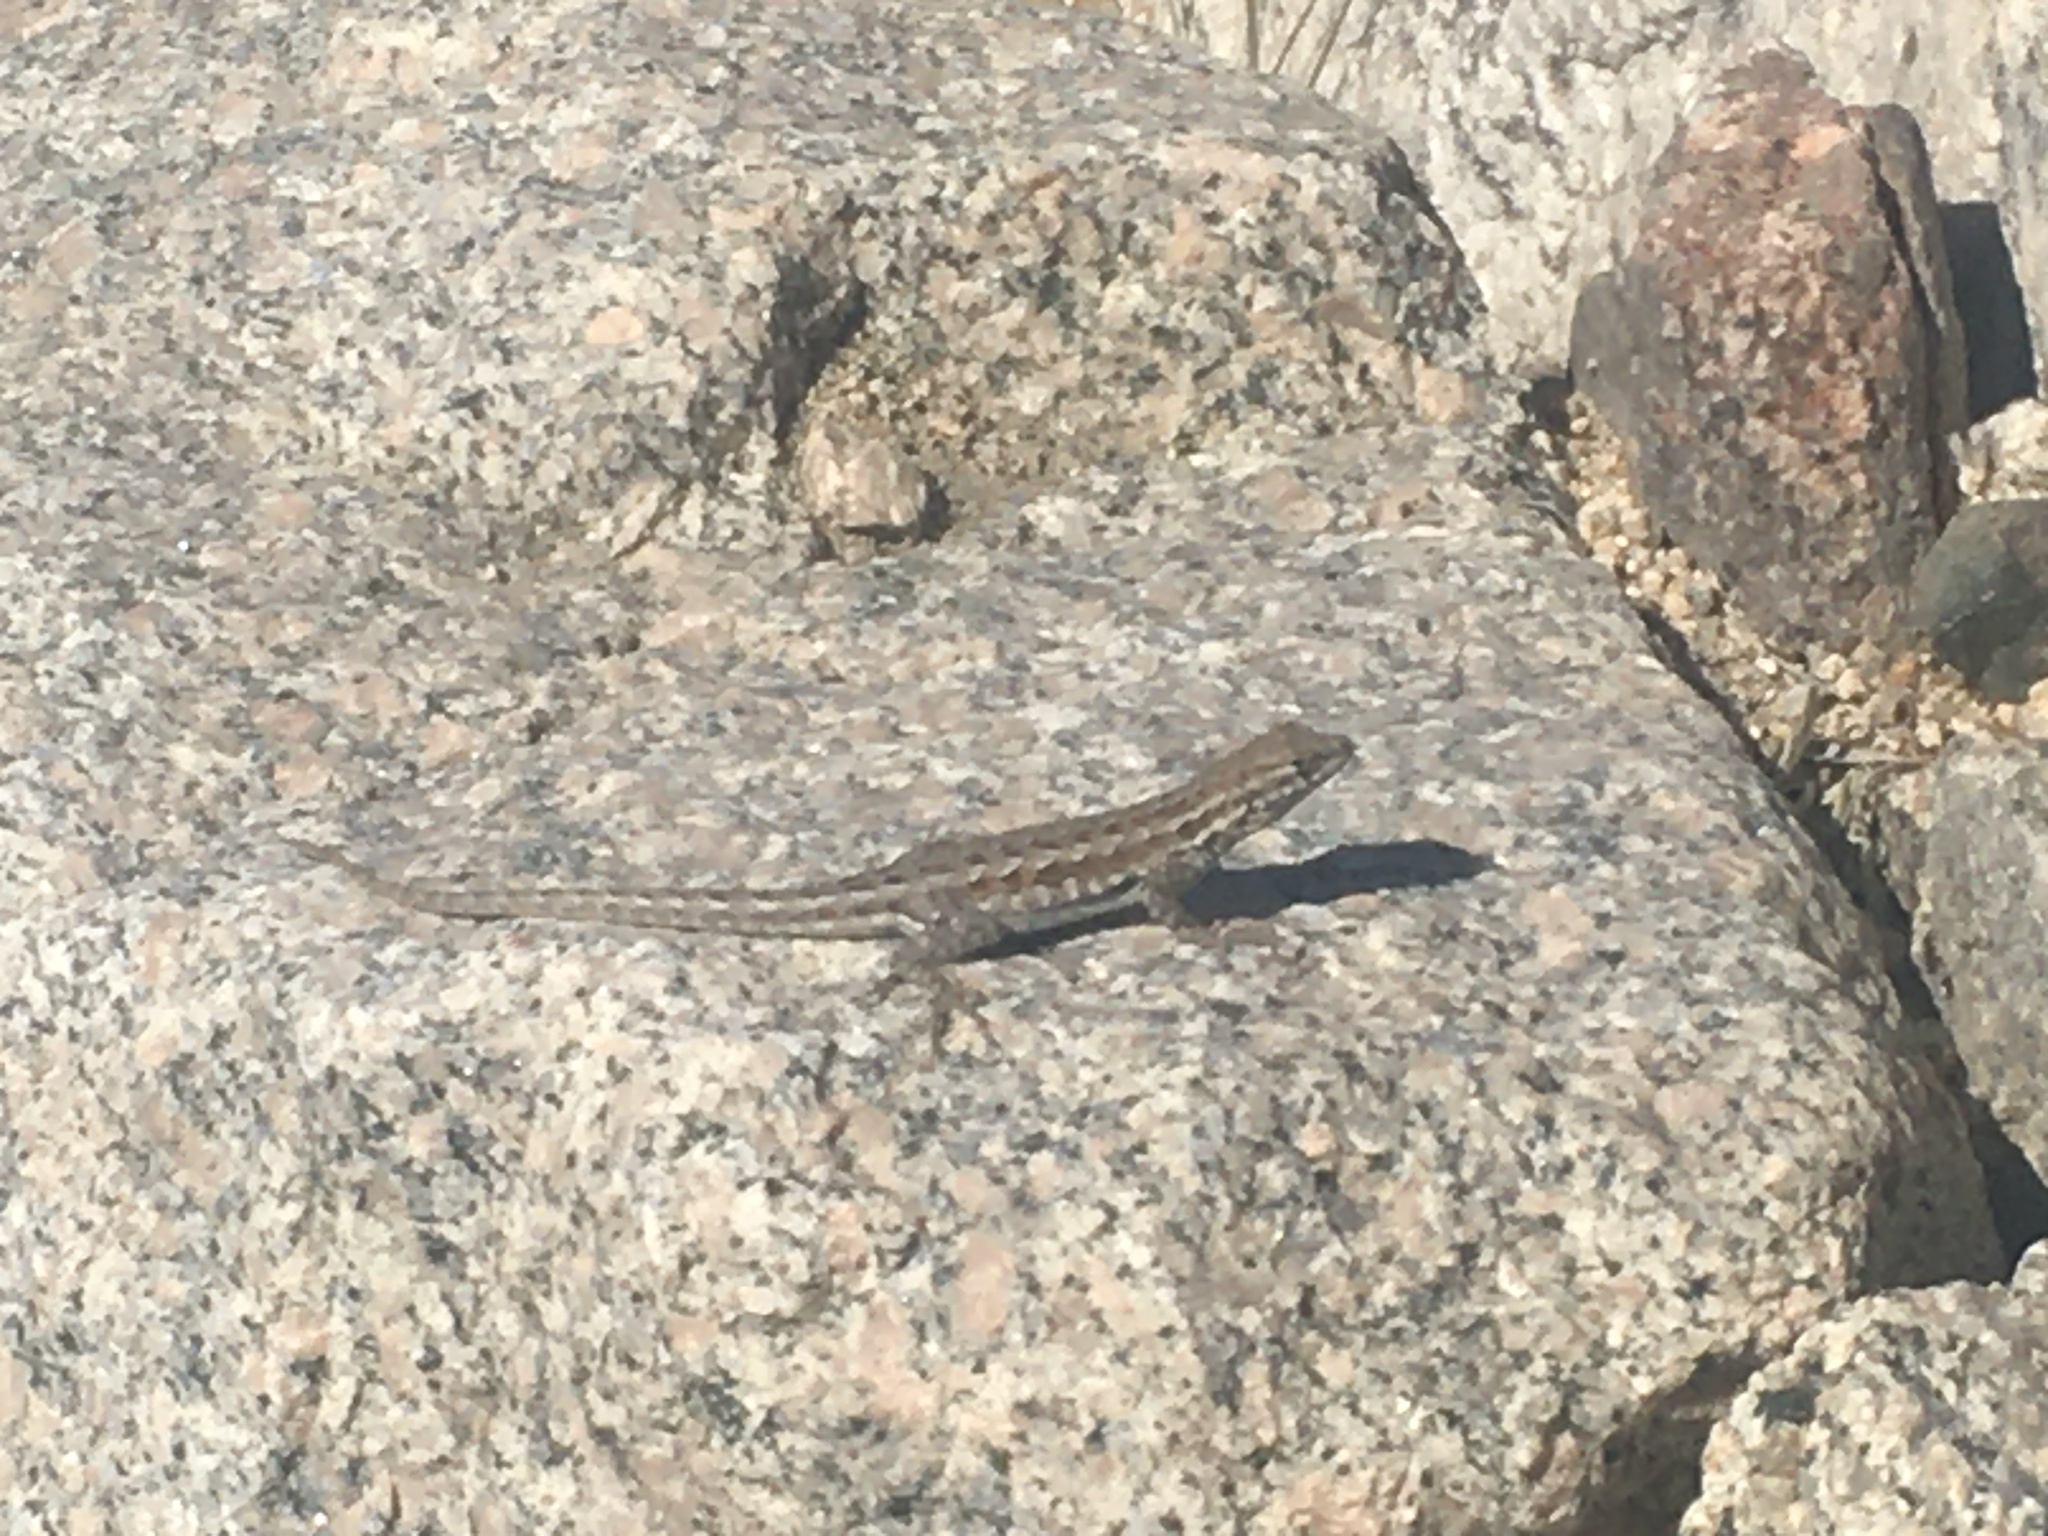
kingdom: Animalia
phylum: Chordata
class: Squamata
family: Phrynosomatidae
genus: Uta
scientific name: Uta stansburiana
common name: Side-blotched lizard
